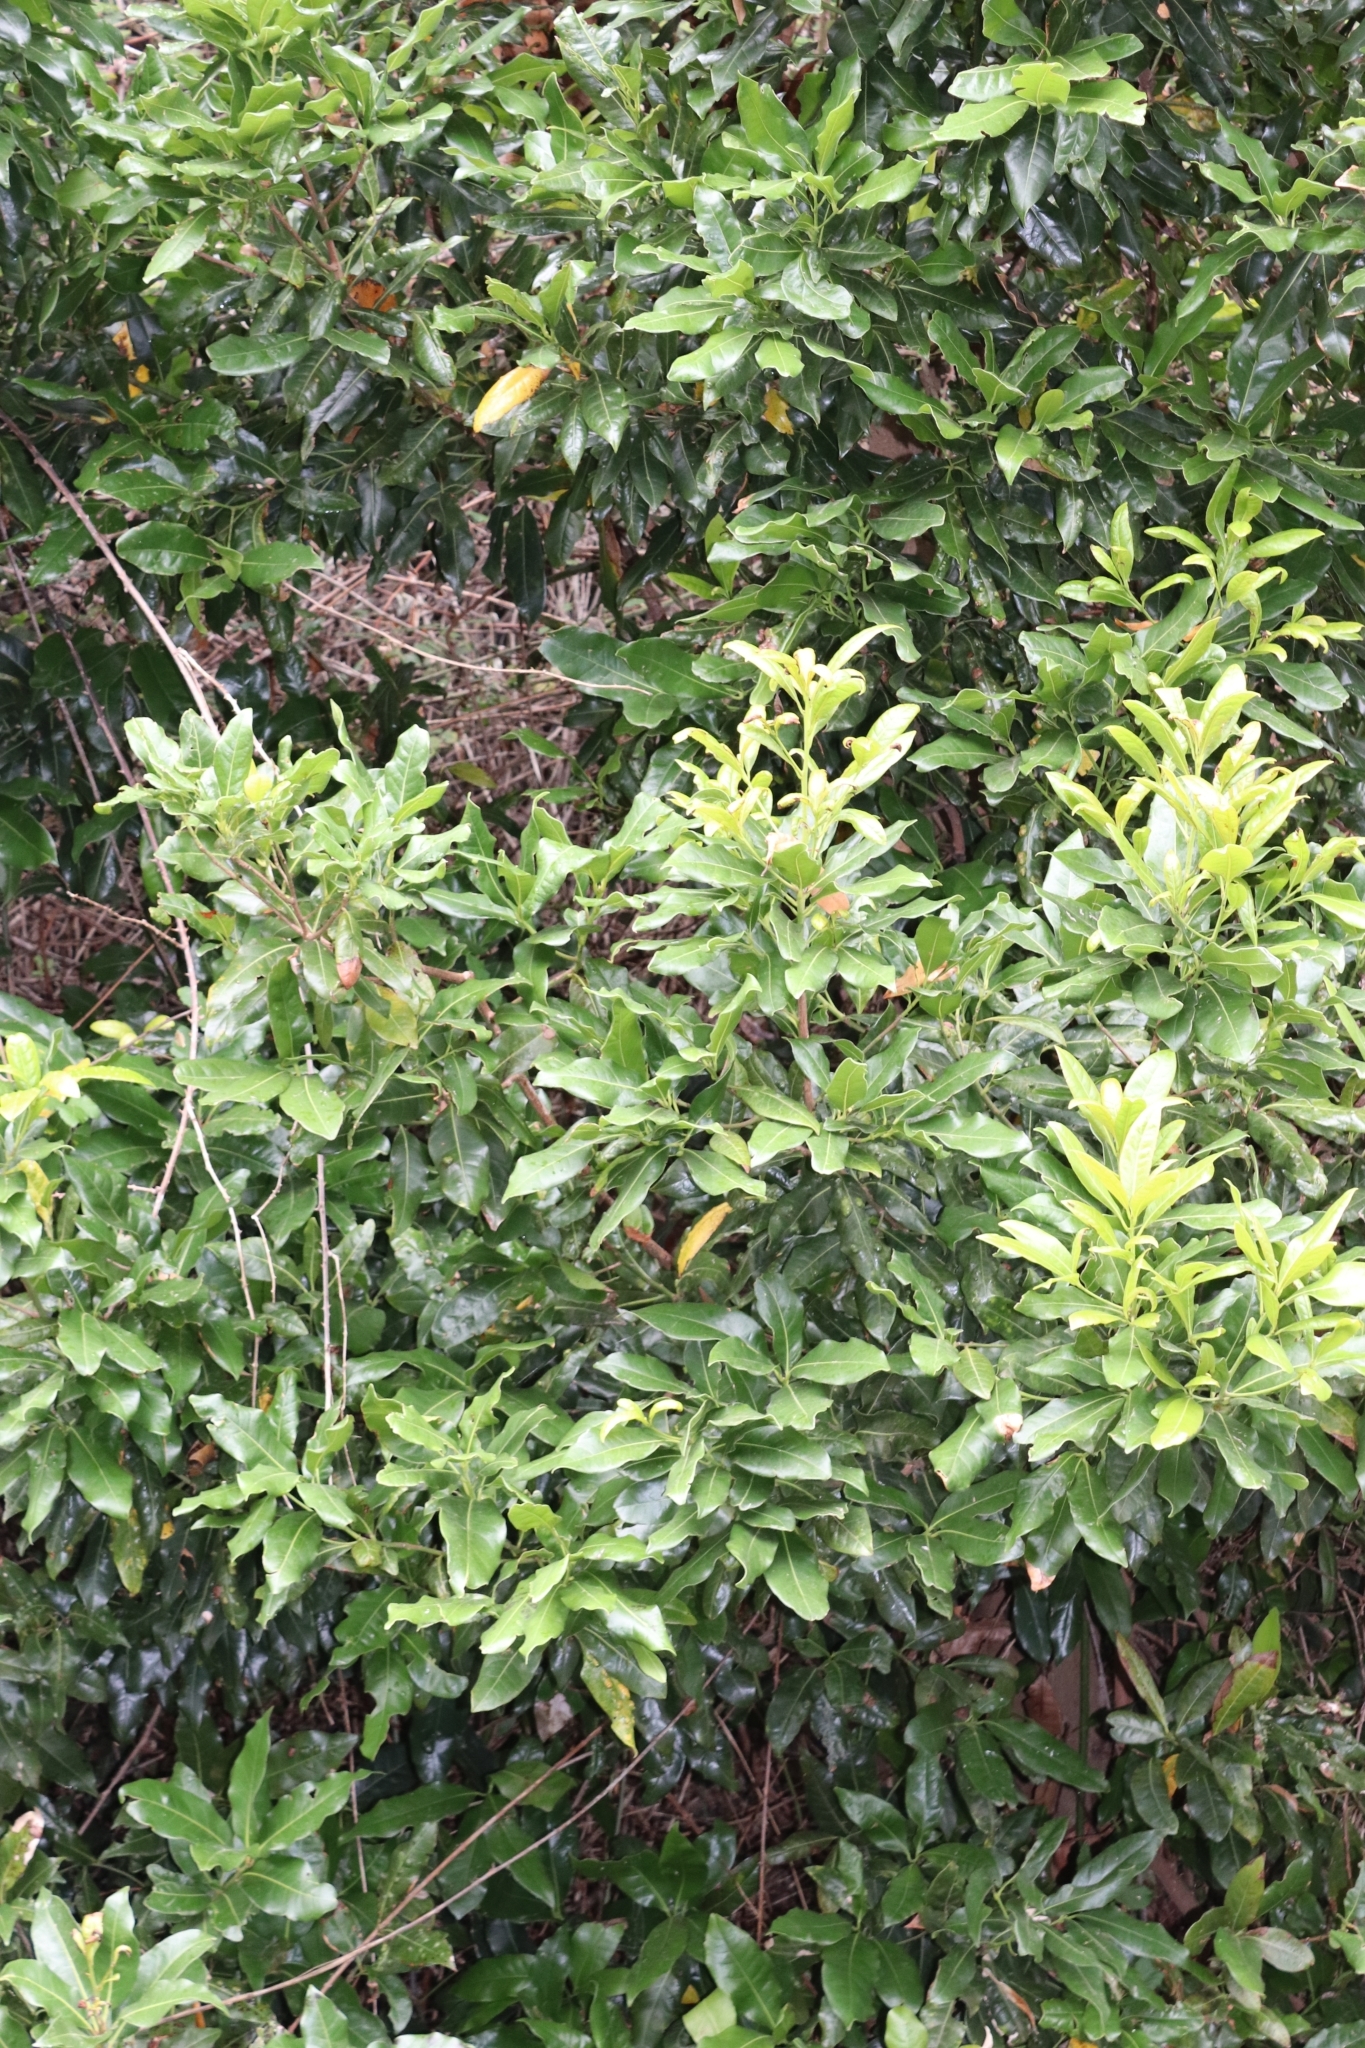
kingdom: Plantae
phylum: Tracheophyta
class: Magnoliopsida
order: Laurales
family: Lauraceae
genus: Apollonias
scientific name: Apollonias barbujana
